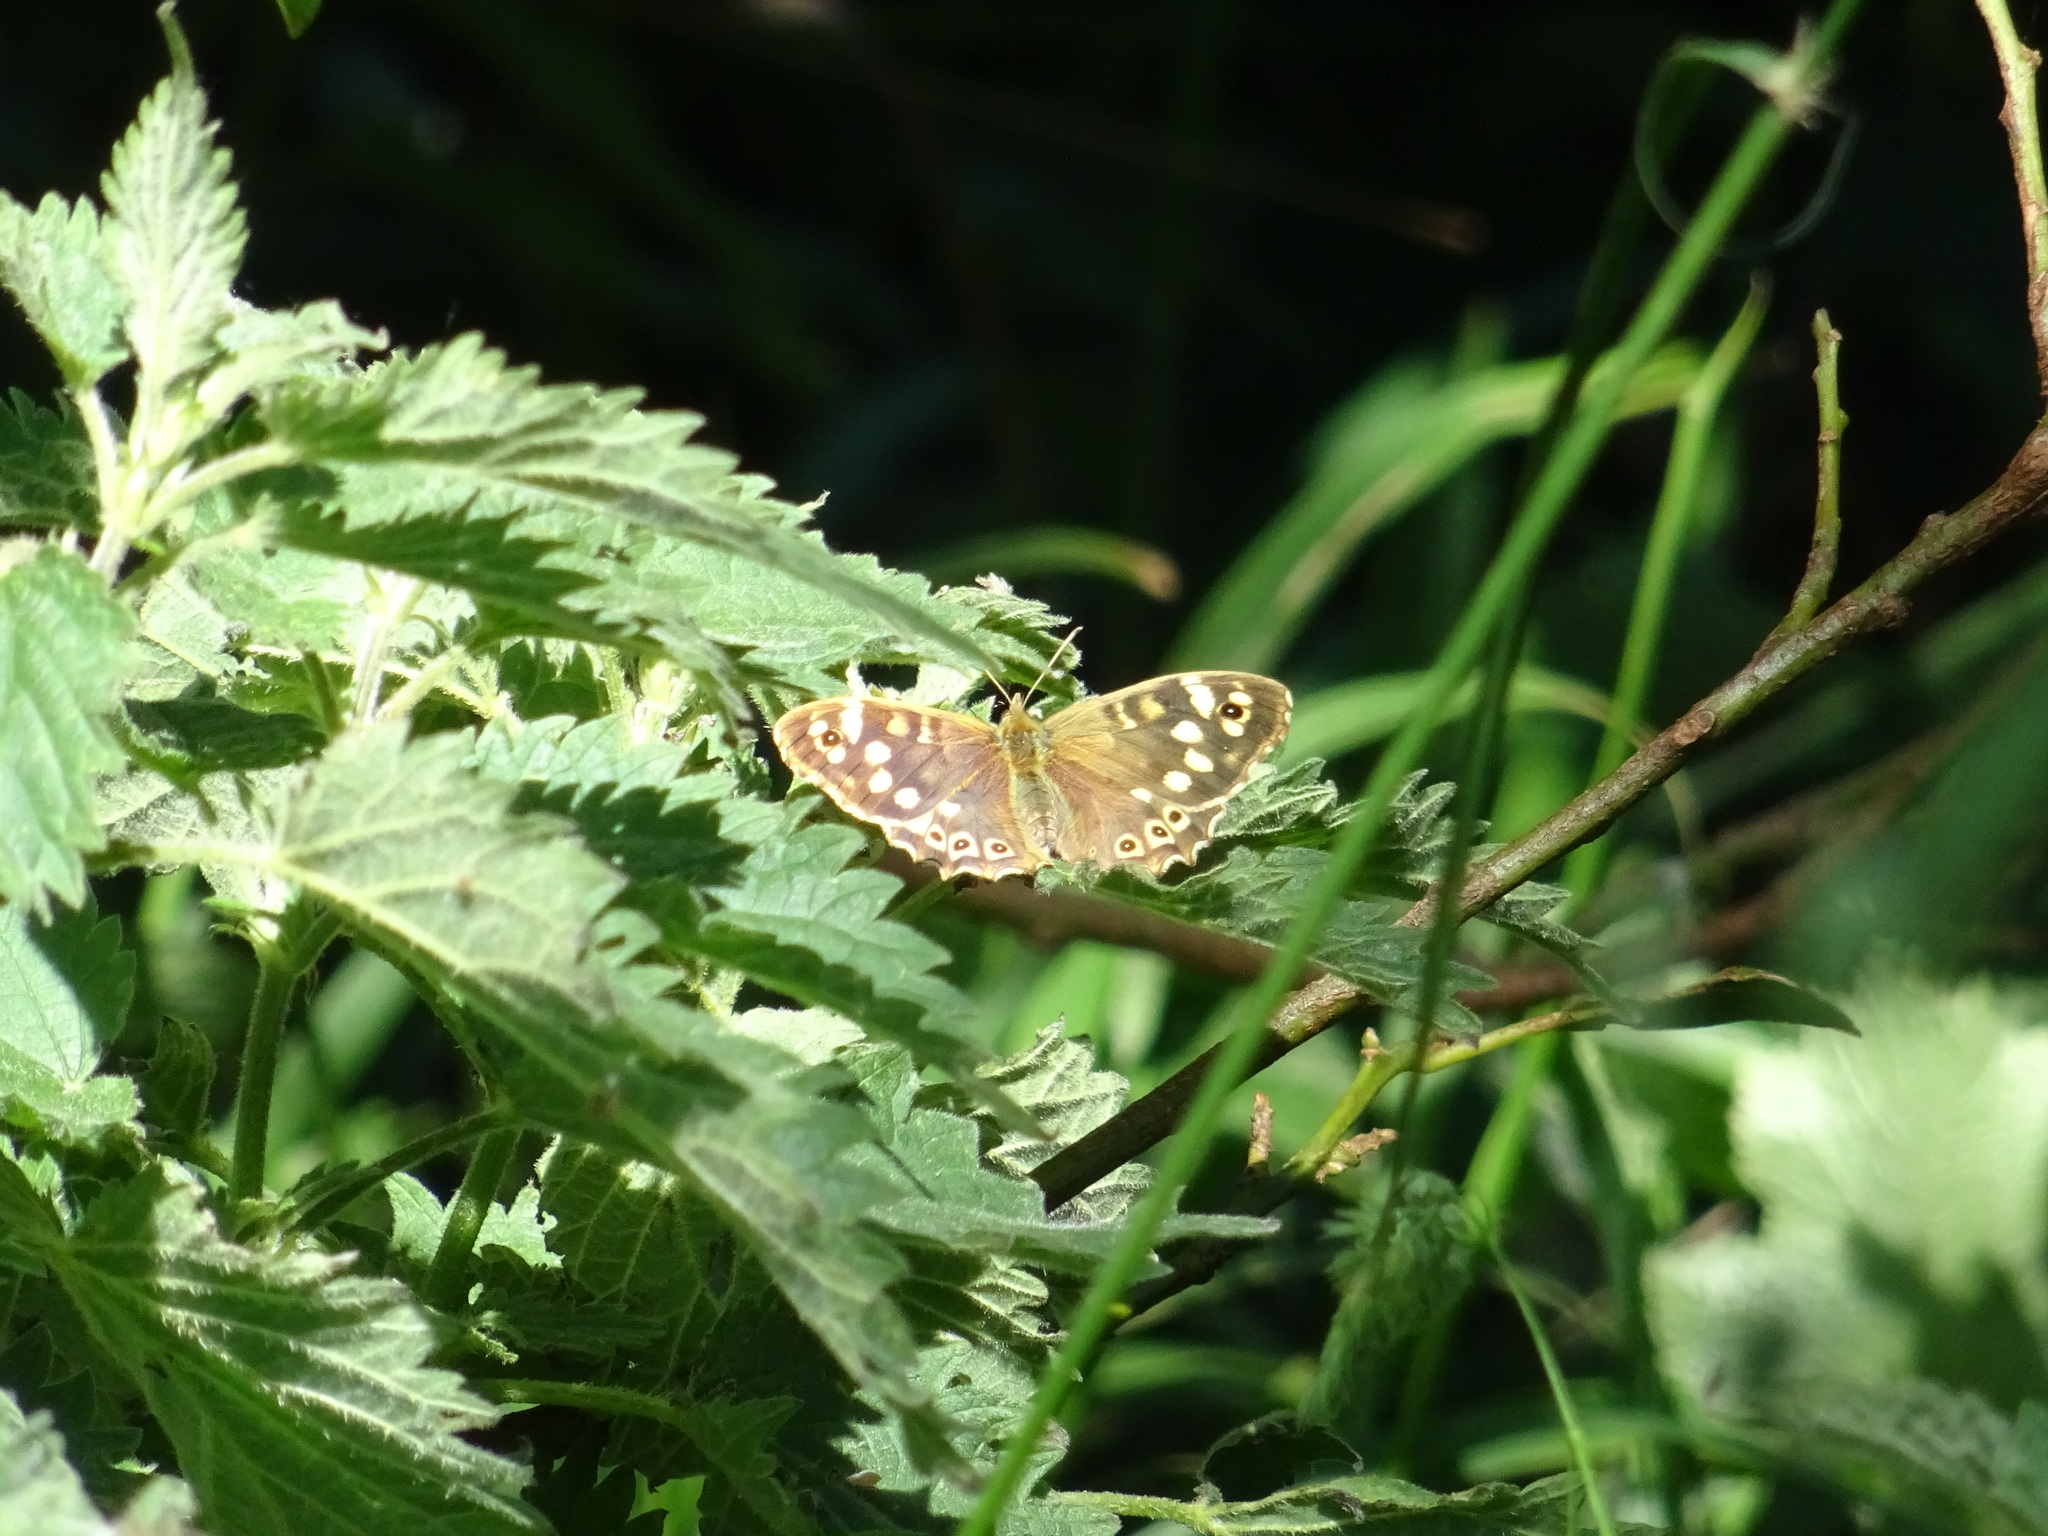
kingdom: Animalia
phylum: Arthropoda
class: Insecta
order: Lepidoptera
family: Nymphalidae
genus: Pararge
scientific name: Pararge aegeria
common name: Speckled wood
